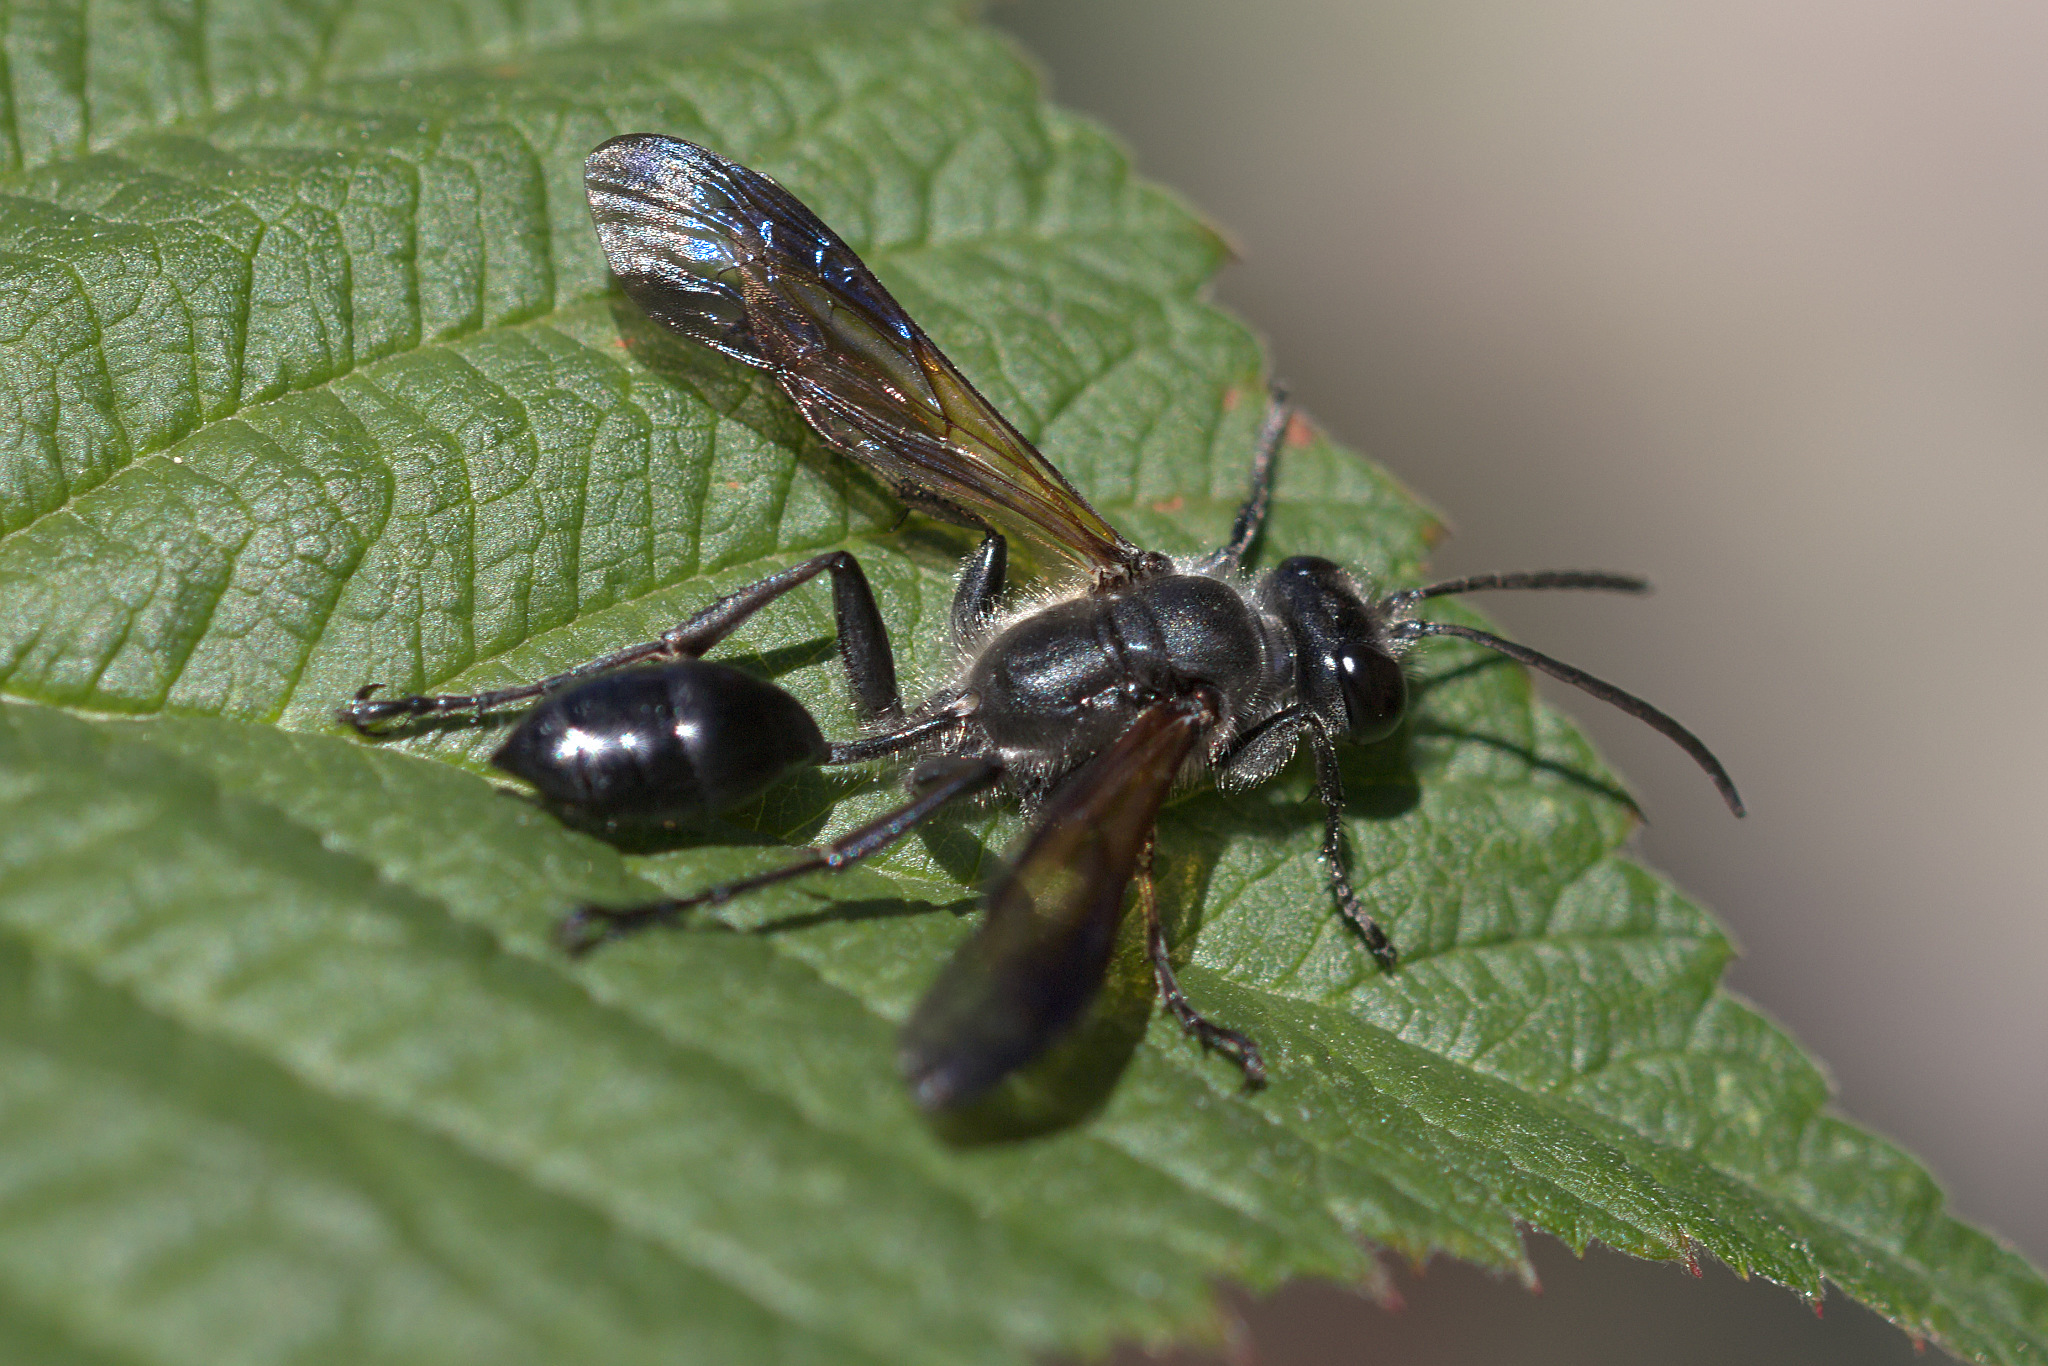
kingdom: Animalia
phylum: Arthropoda
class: Insecta
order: Hymenoptera
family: Sphecidae
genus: Isodontia
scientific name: Isodontia mexicana
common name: Mud dauber
